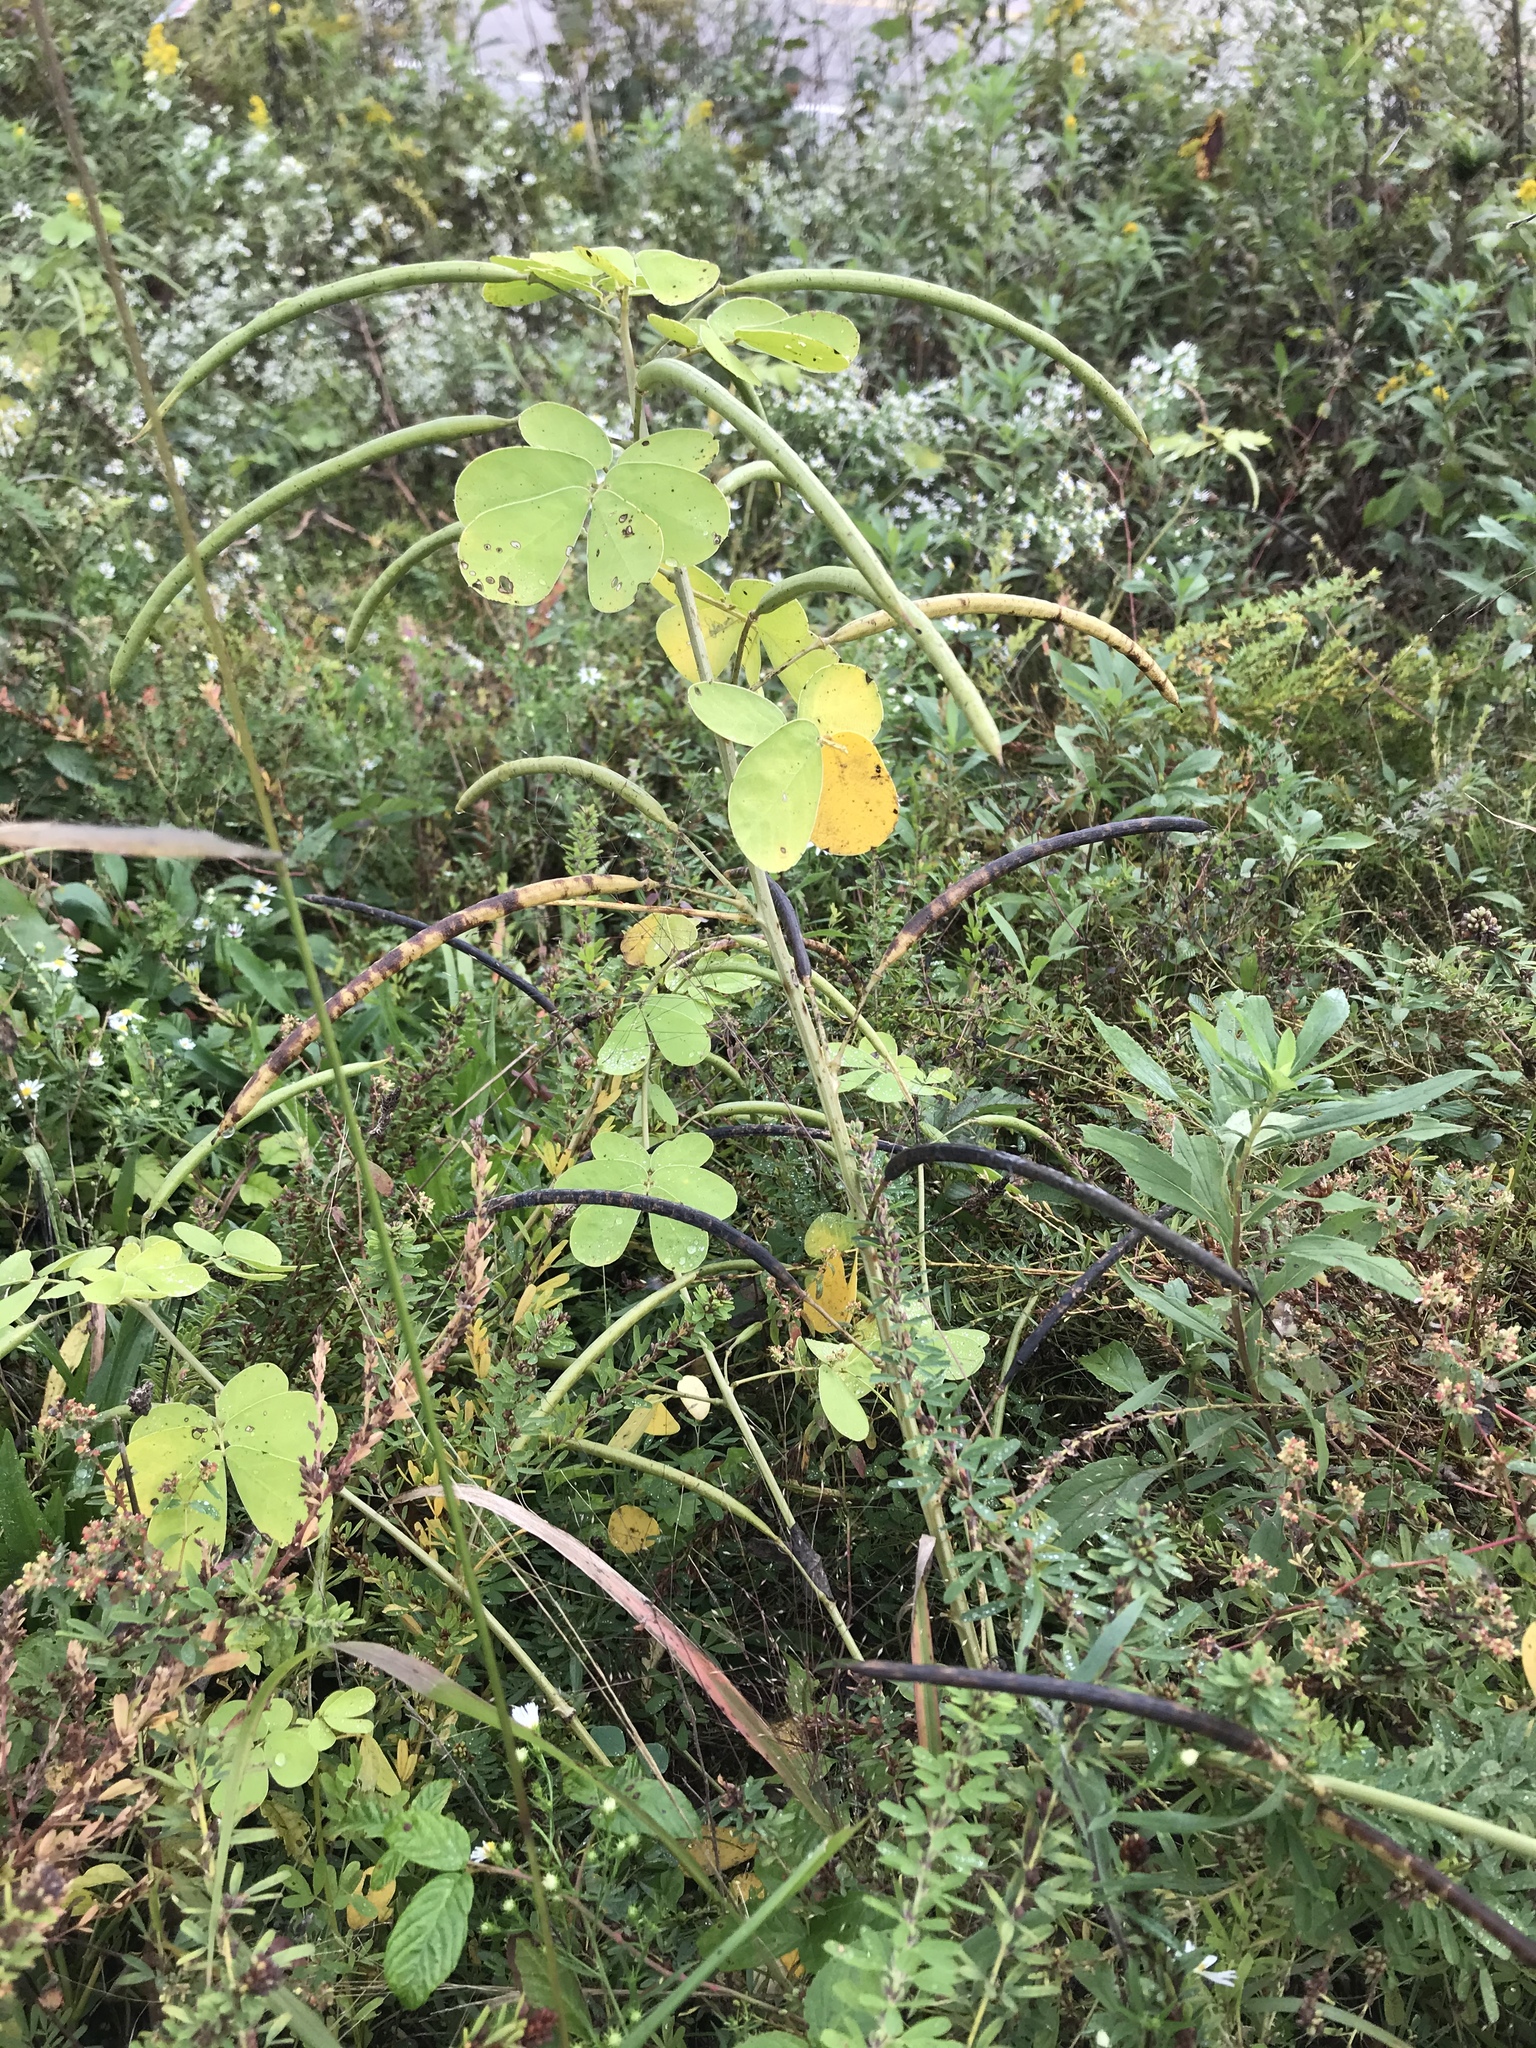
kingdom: Plantae
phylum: Tracheophyta
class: Magnoliopsida
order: Fabales
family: Fabaceae
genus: Senna
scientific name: Senna obtusifolia
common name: Java-bean
